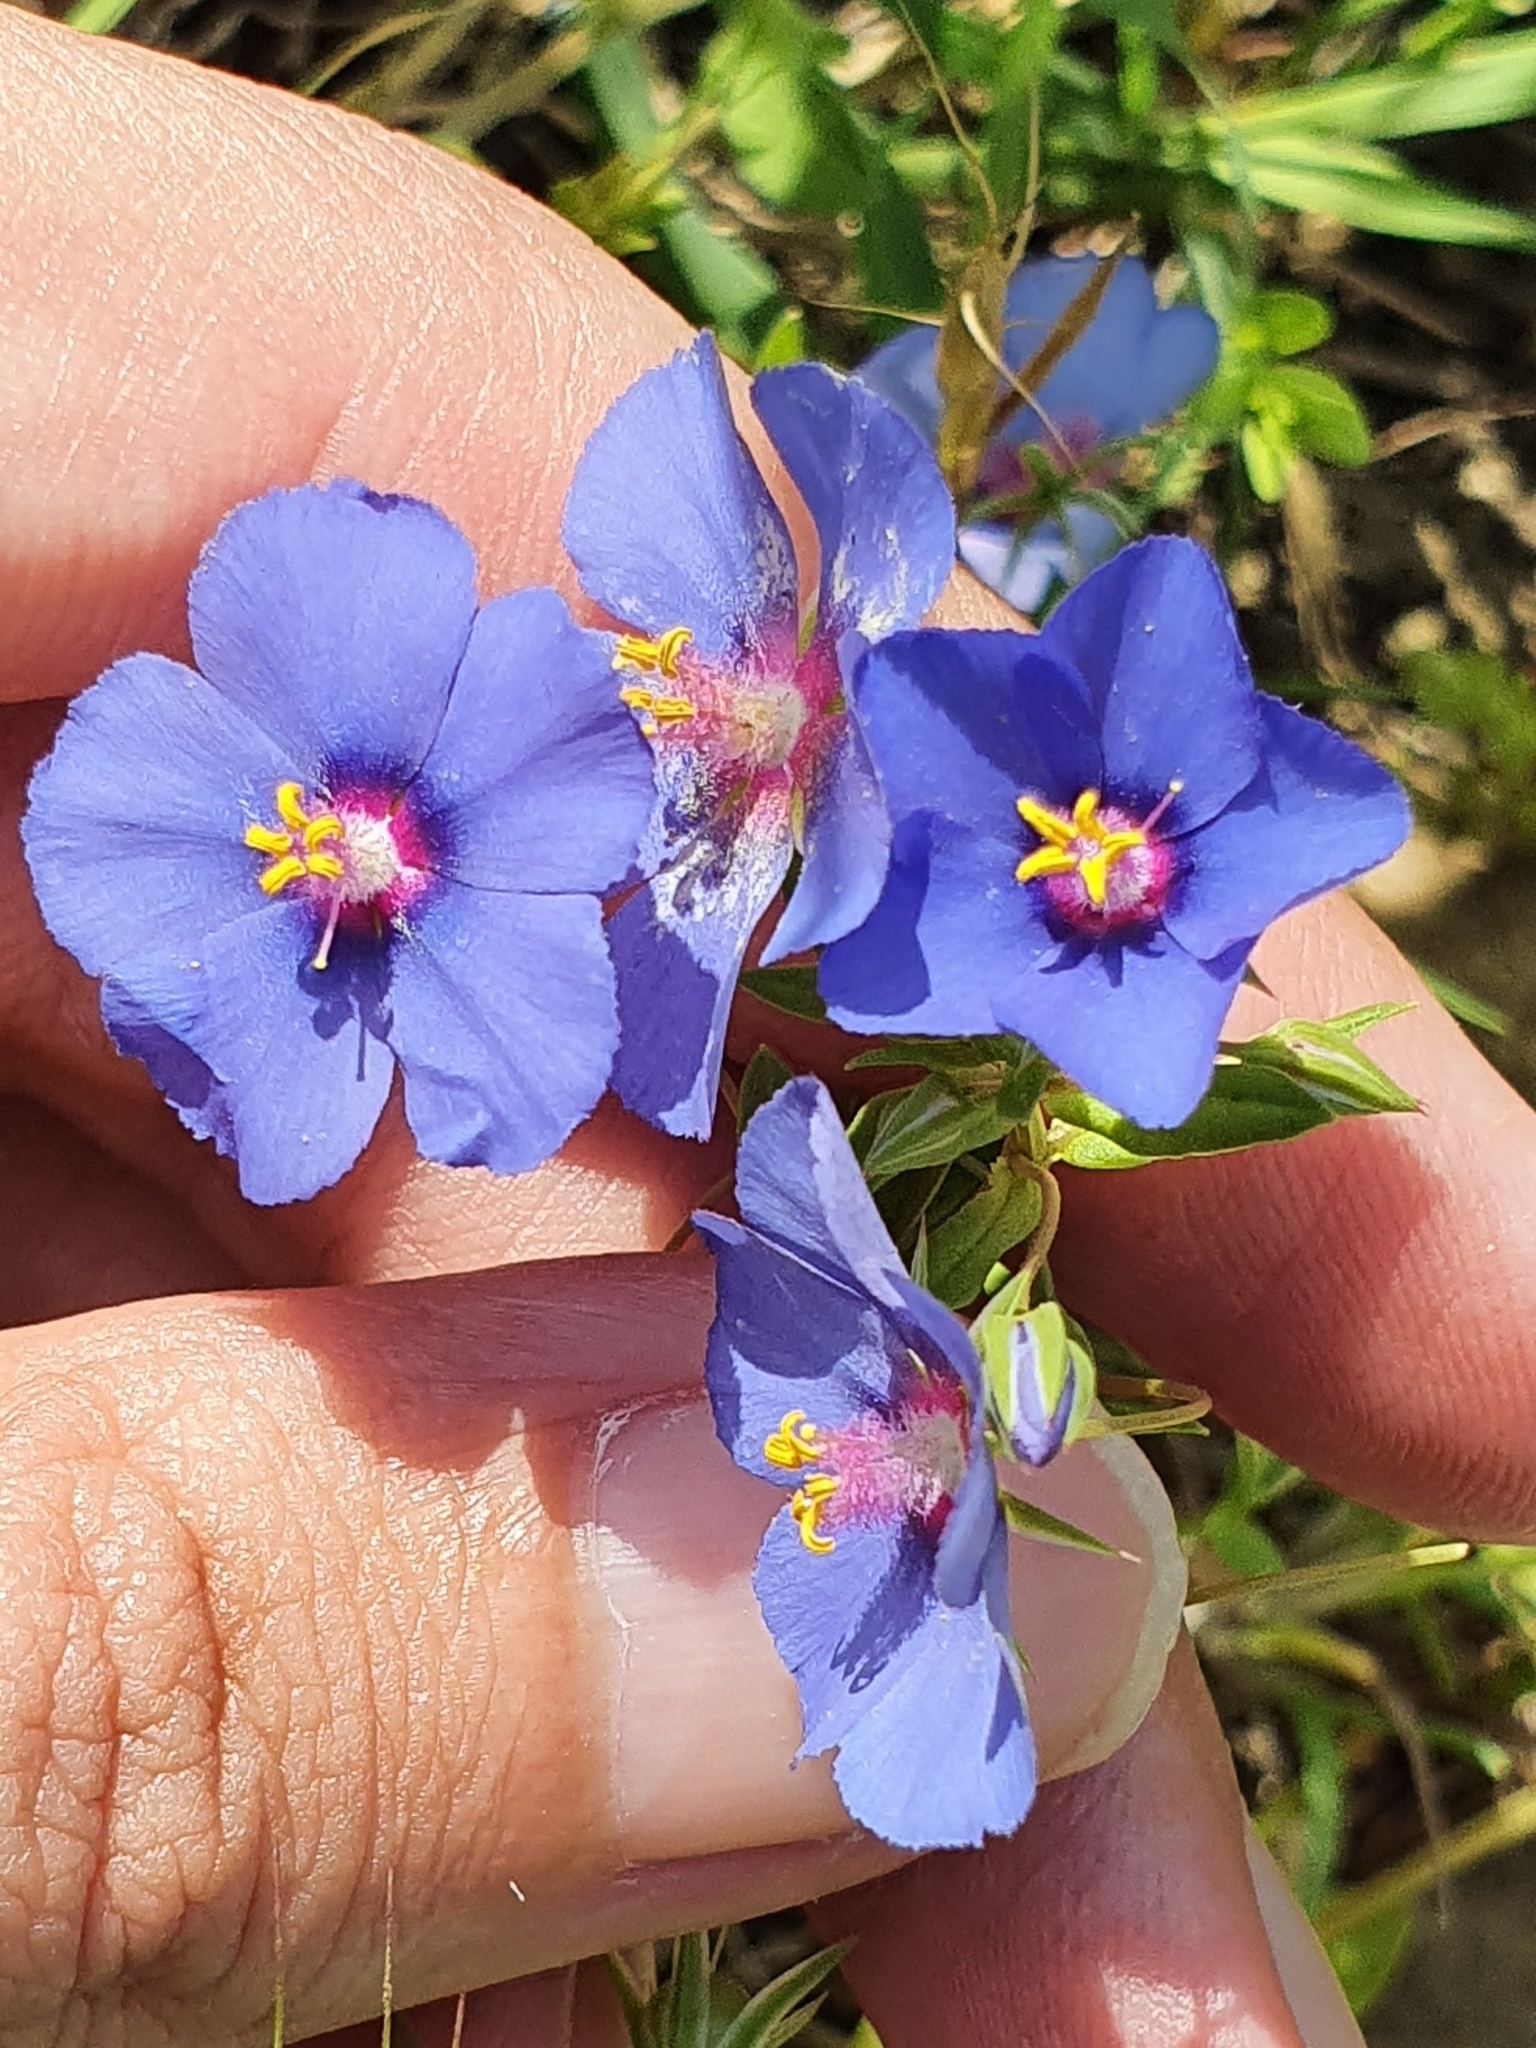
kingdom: Plantae
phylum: Tracheophyta
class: Magnoliopsida
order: Ericales
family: Primulaceae
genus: Lysimachia
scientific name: Lysimachia arvensis
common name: Scarlet pimpernel
